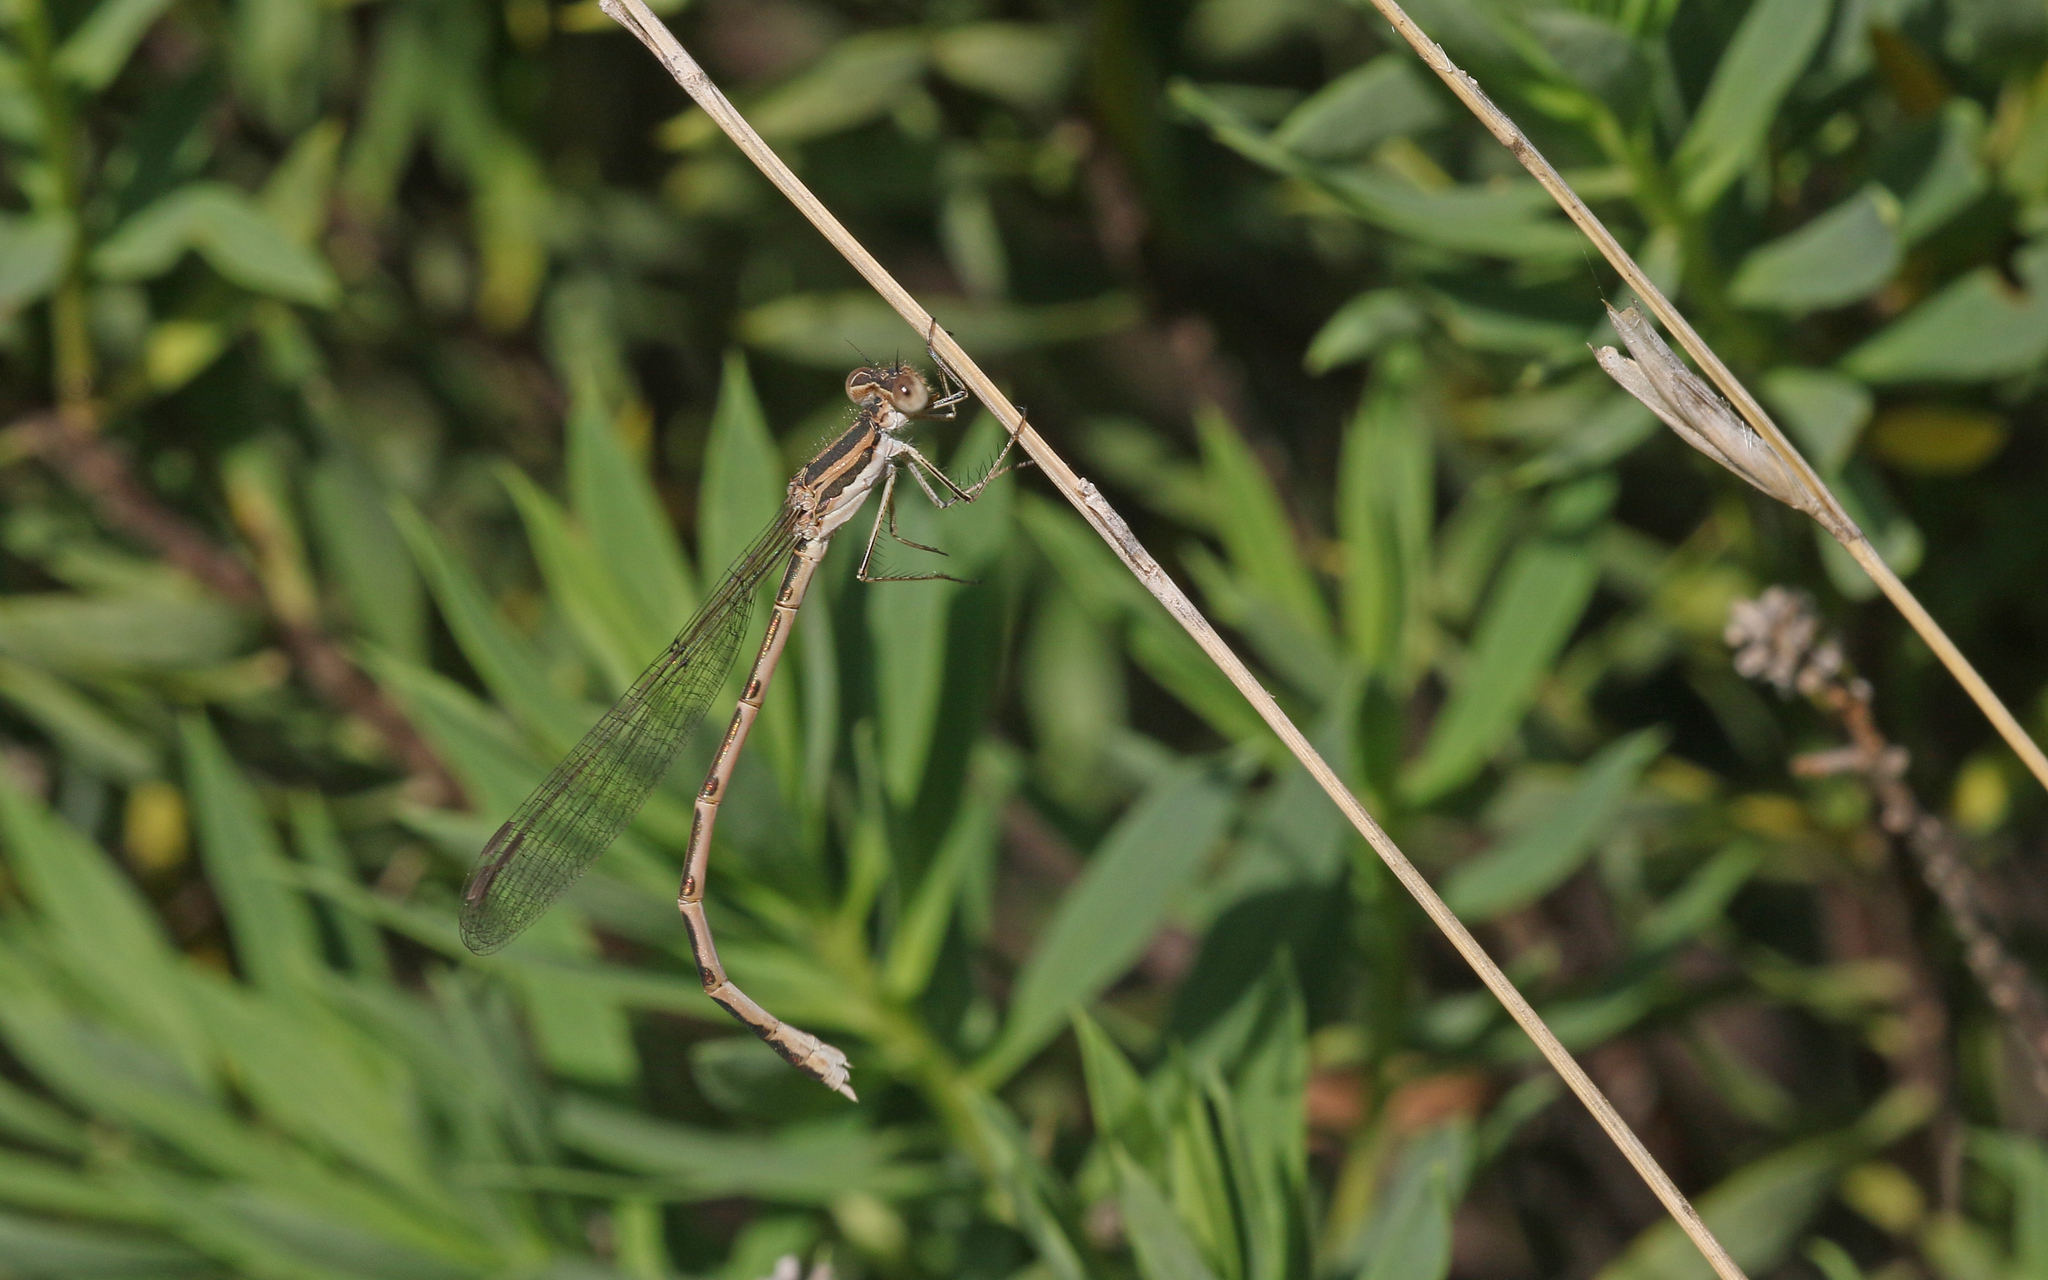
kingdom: Animalia
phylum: Arthropoda
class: Insecta
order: Odonata
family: Lestidae
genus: Sympecma
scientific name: Sympecma fusca
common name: Common winter damsel
